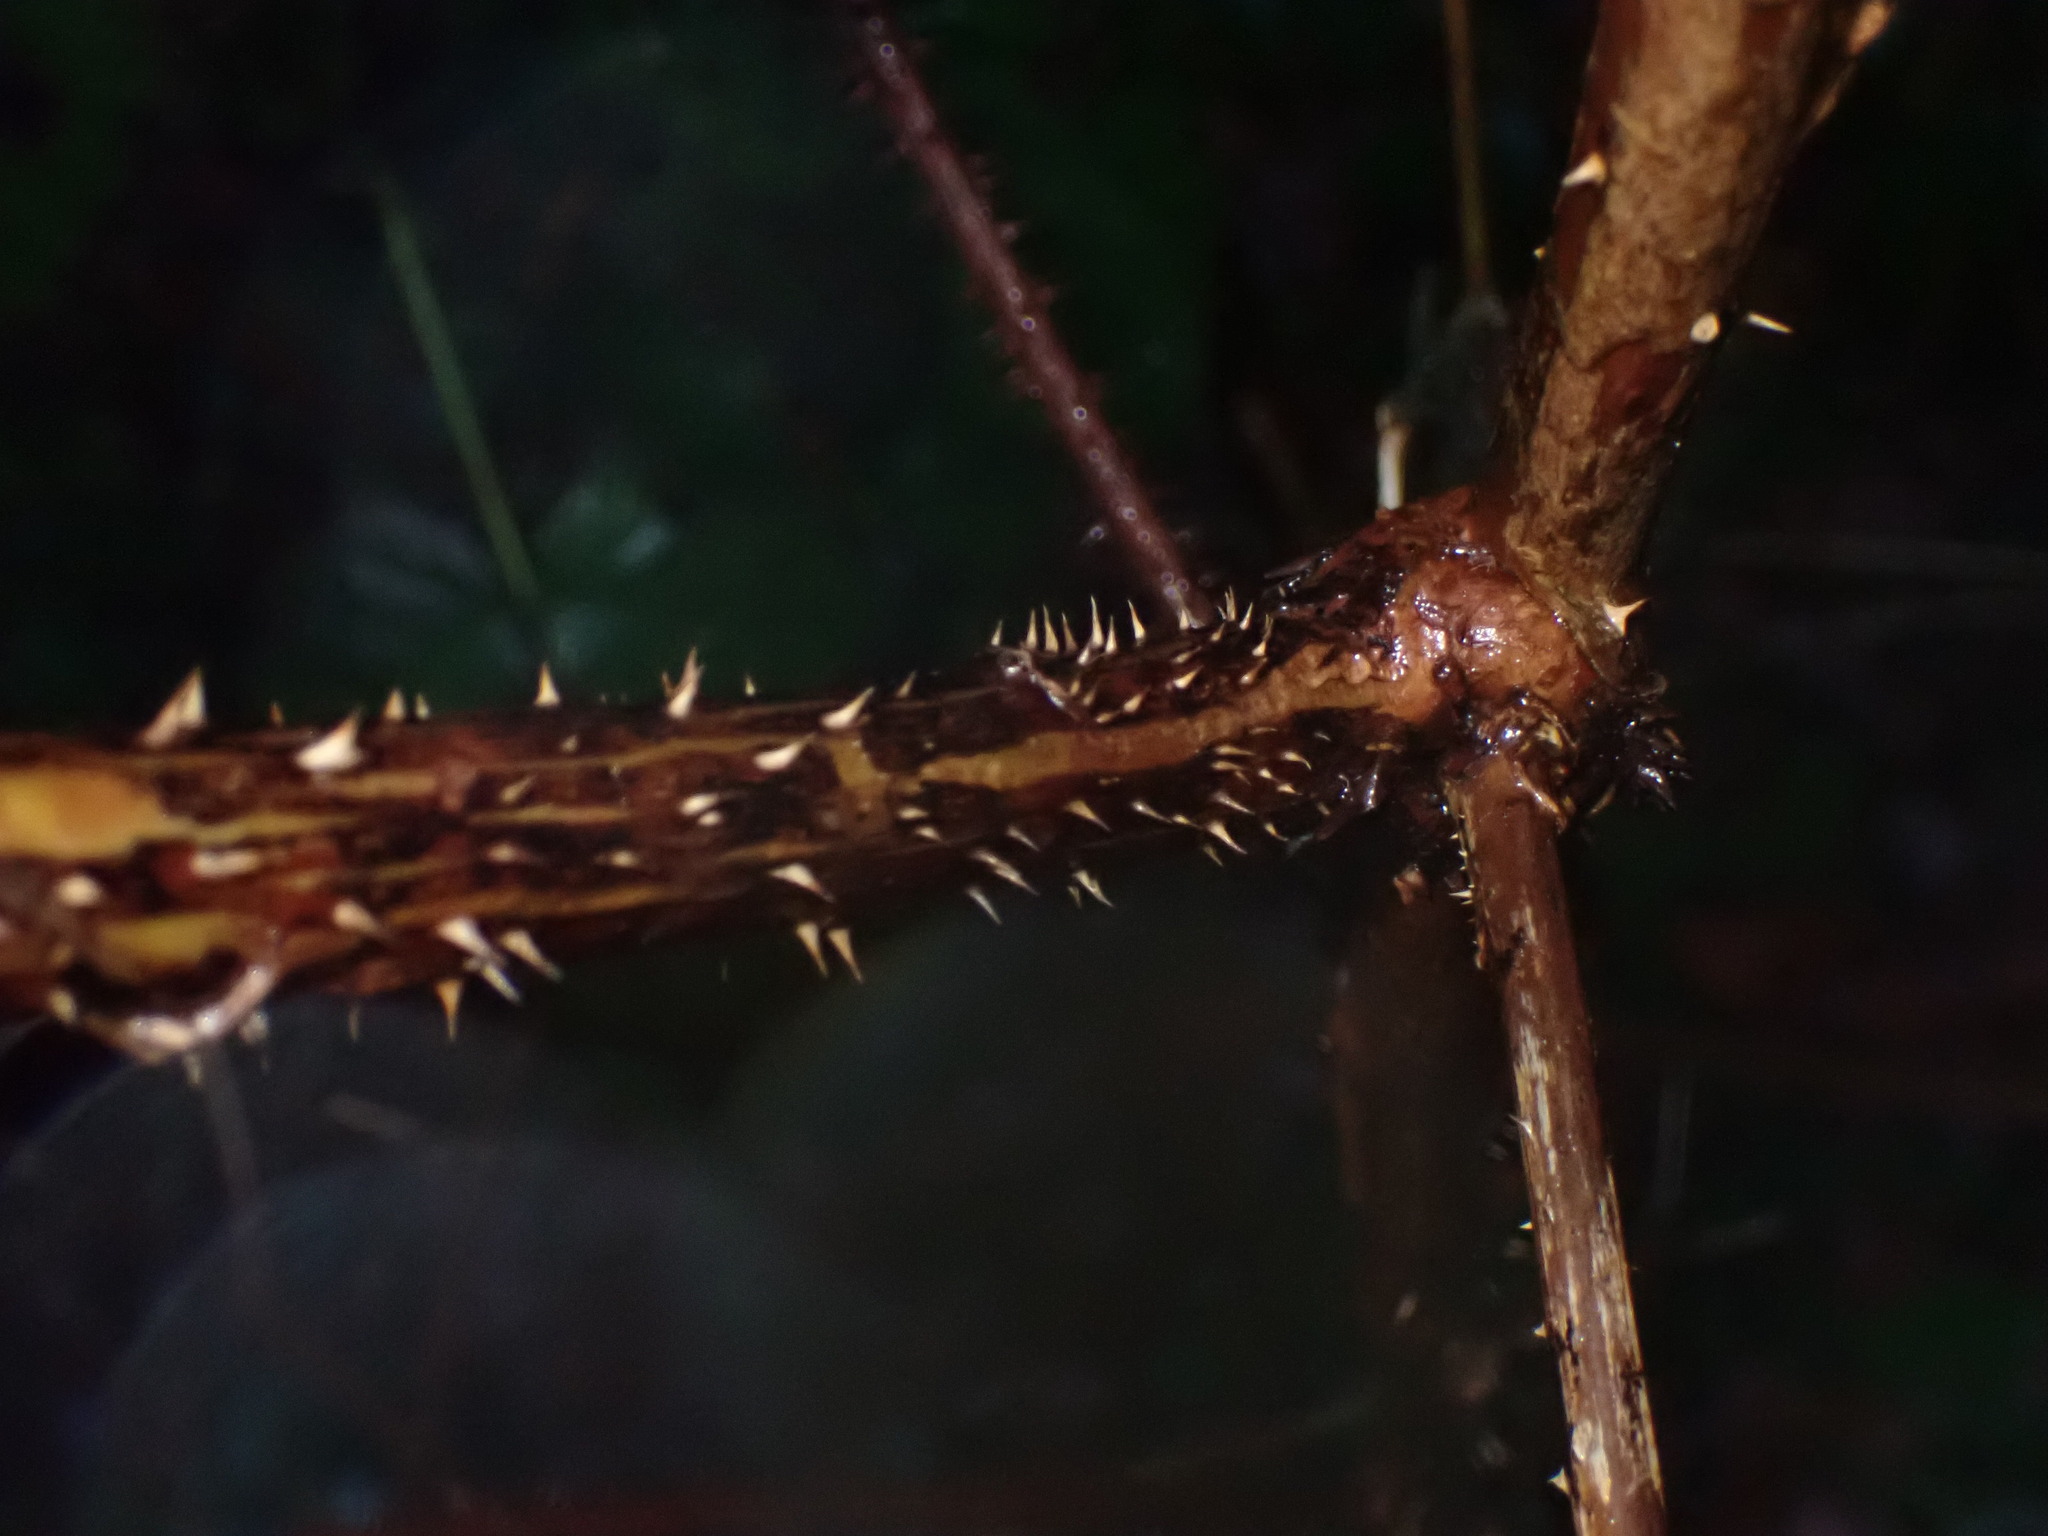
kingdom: Plantae
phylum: Tracheophyta
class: Magnoliopsida
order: Rosales
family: Rosaceae
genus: Rubus
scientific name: Rubus spectabilis
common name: Salmonberry
